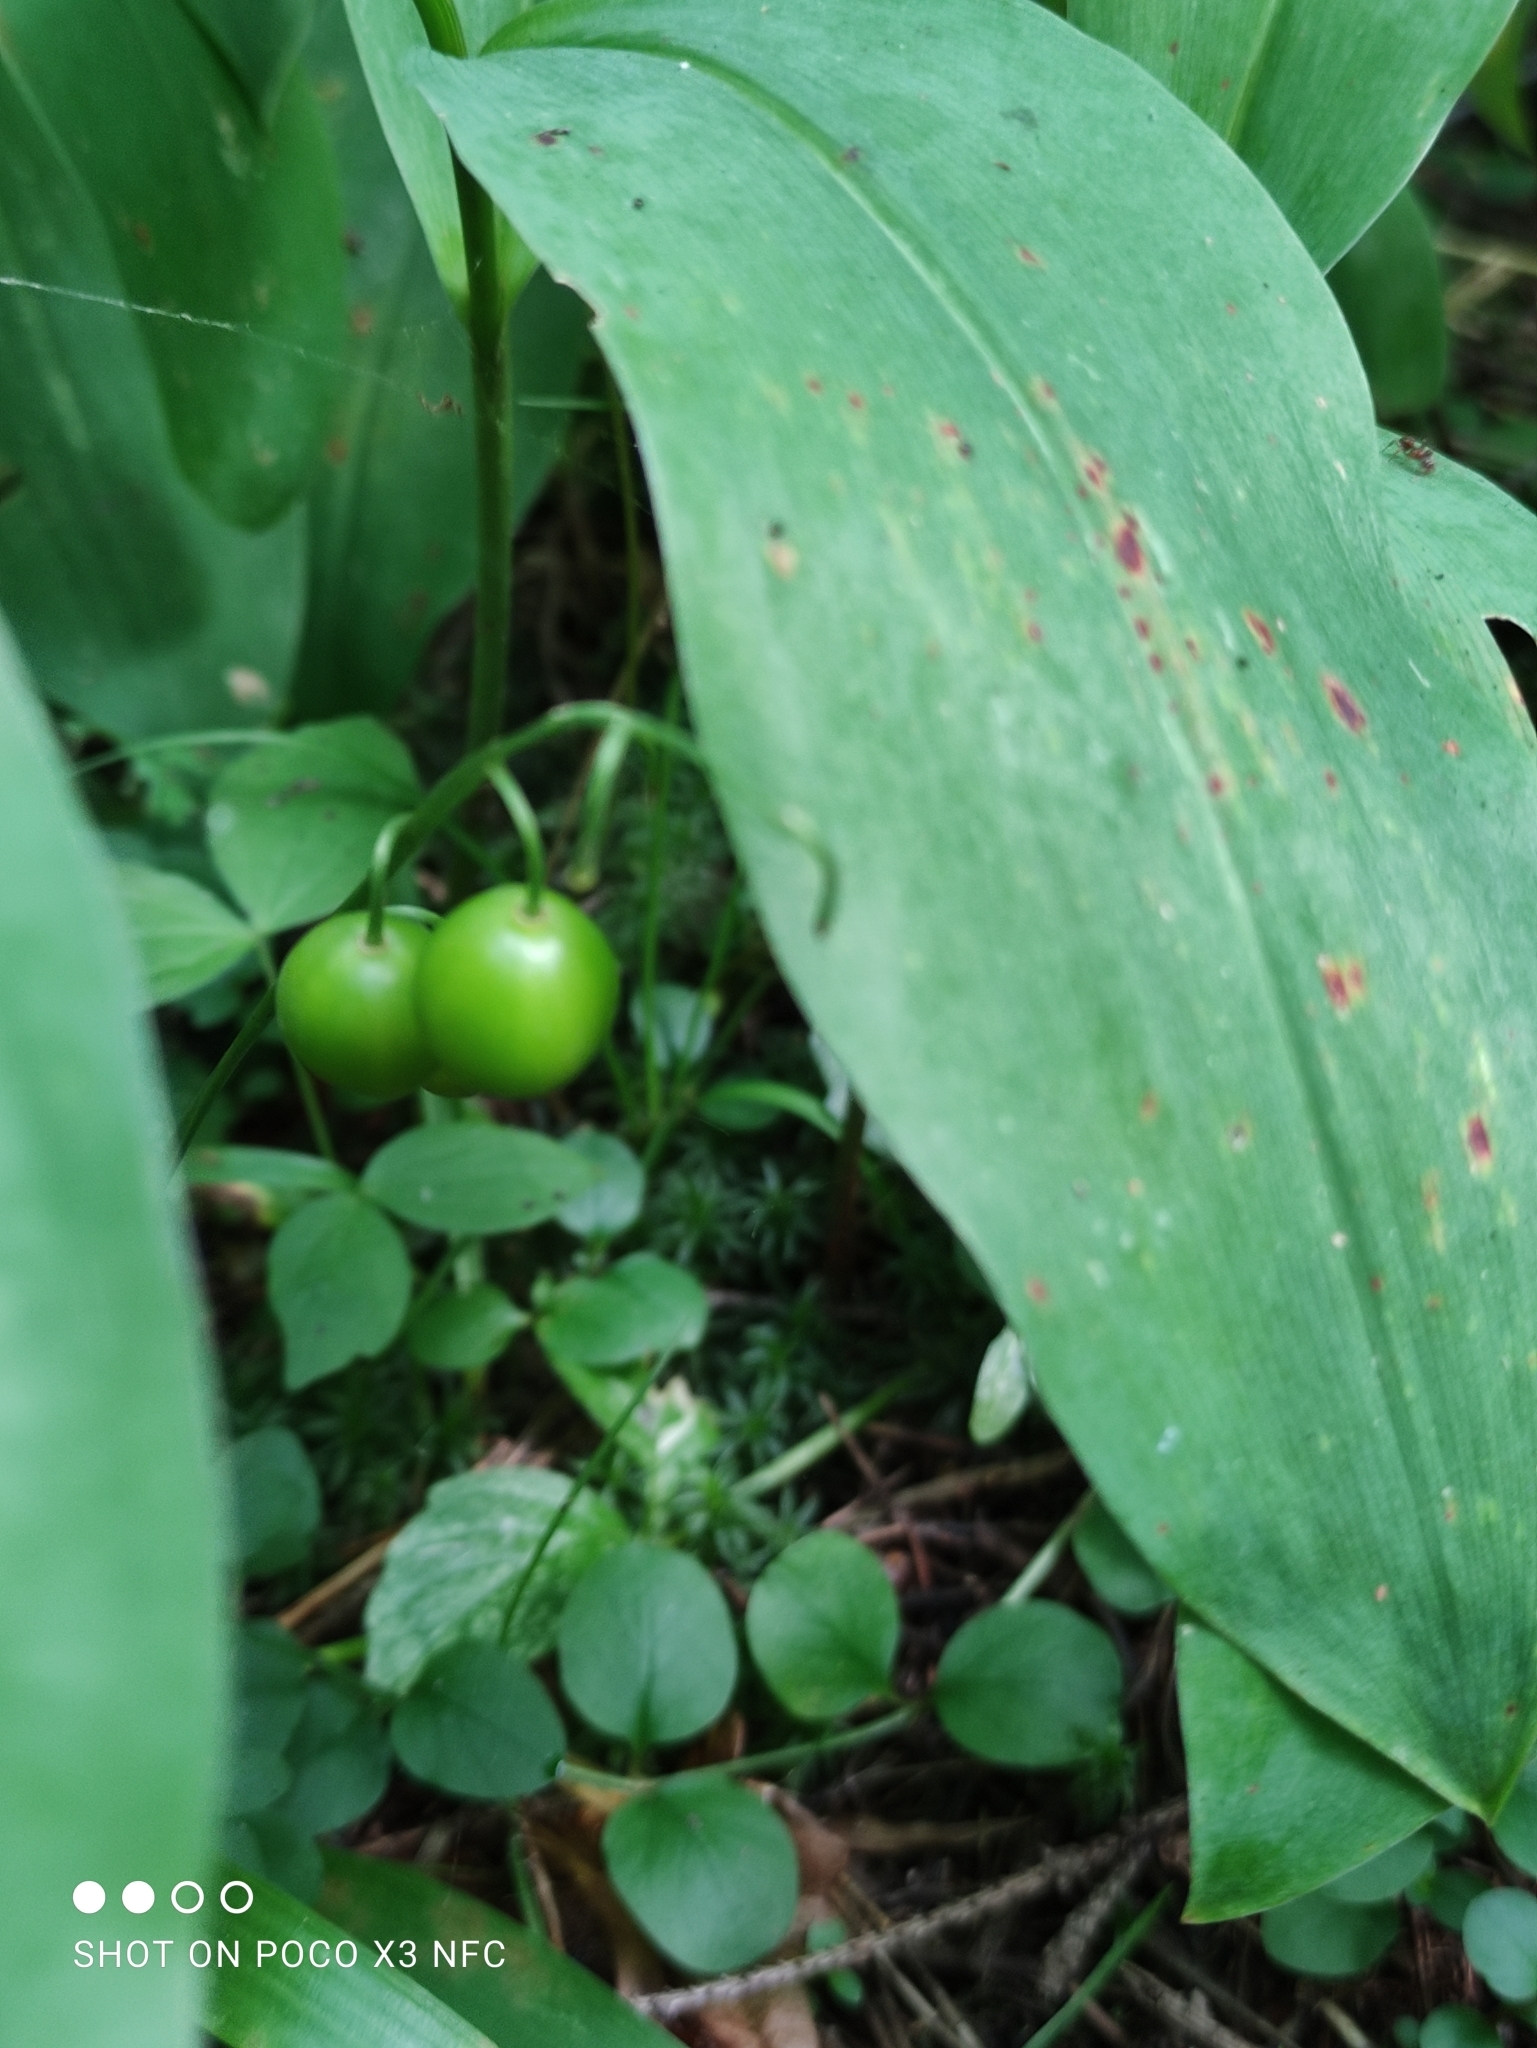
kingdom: Plantae
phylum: Tracheophyta
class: Liliopsida
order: Asparagales
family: Asparagaceae
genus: Convallaria
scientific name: Convallaria majalis
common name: Lily-of-the-valley
